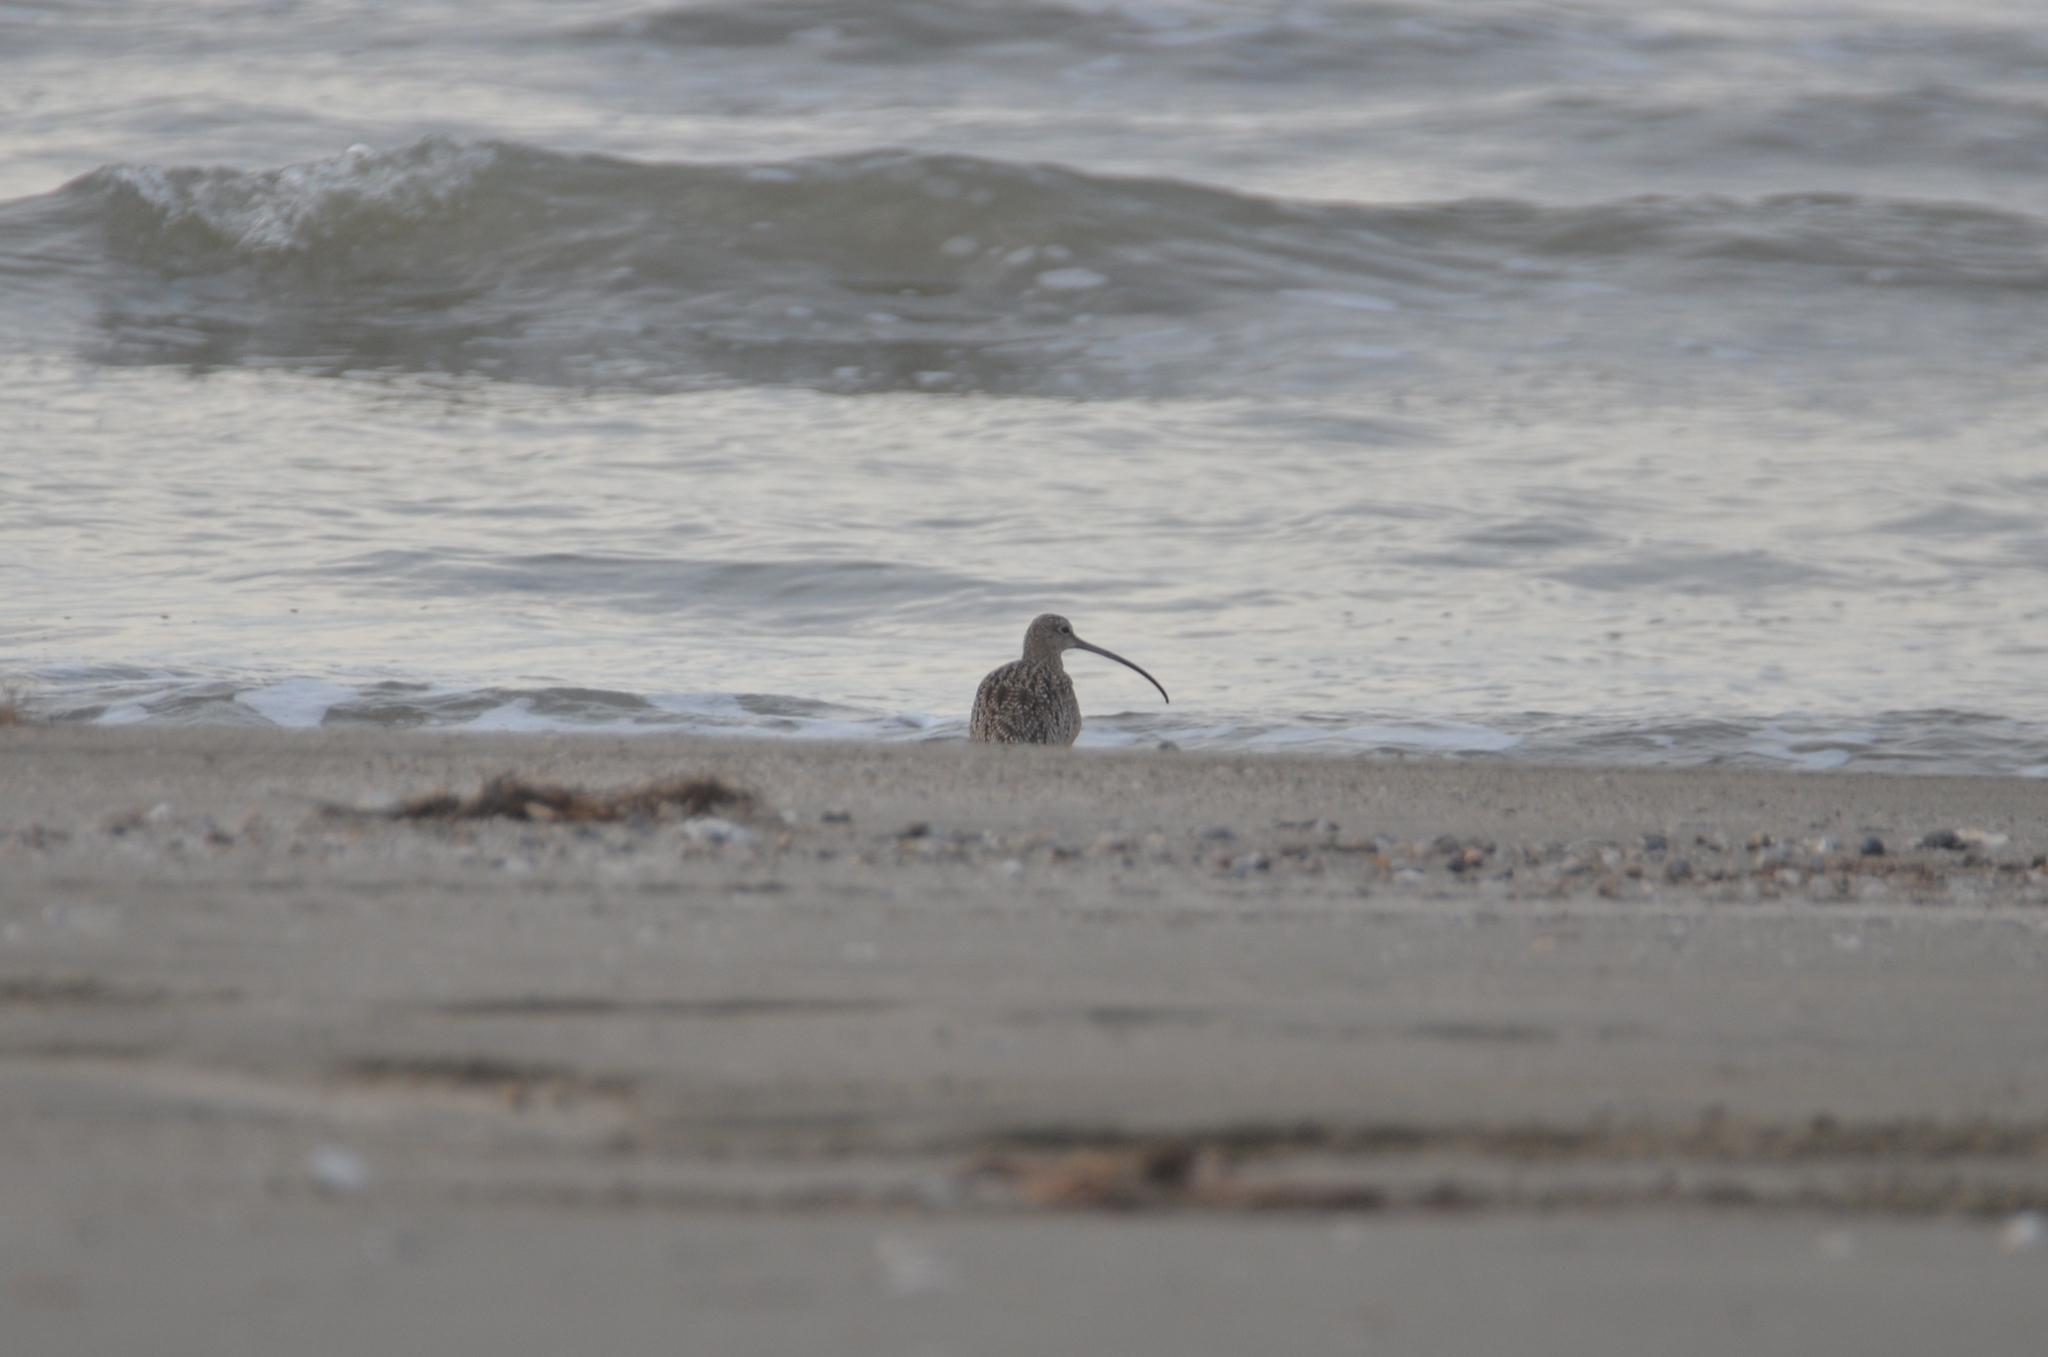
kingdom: Animalia
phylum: Chordata
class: Aves
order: Charadriiformes
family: Scolopacidae
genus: Numenius
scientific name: Numenius americanus
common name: Long-billed curlew
